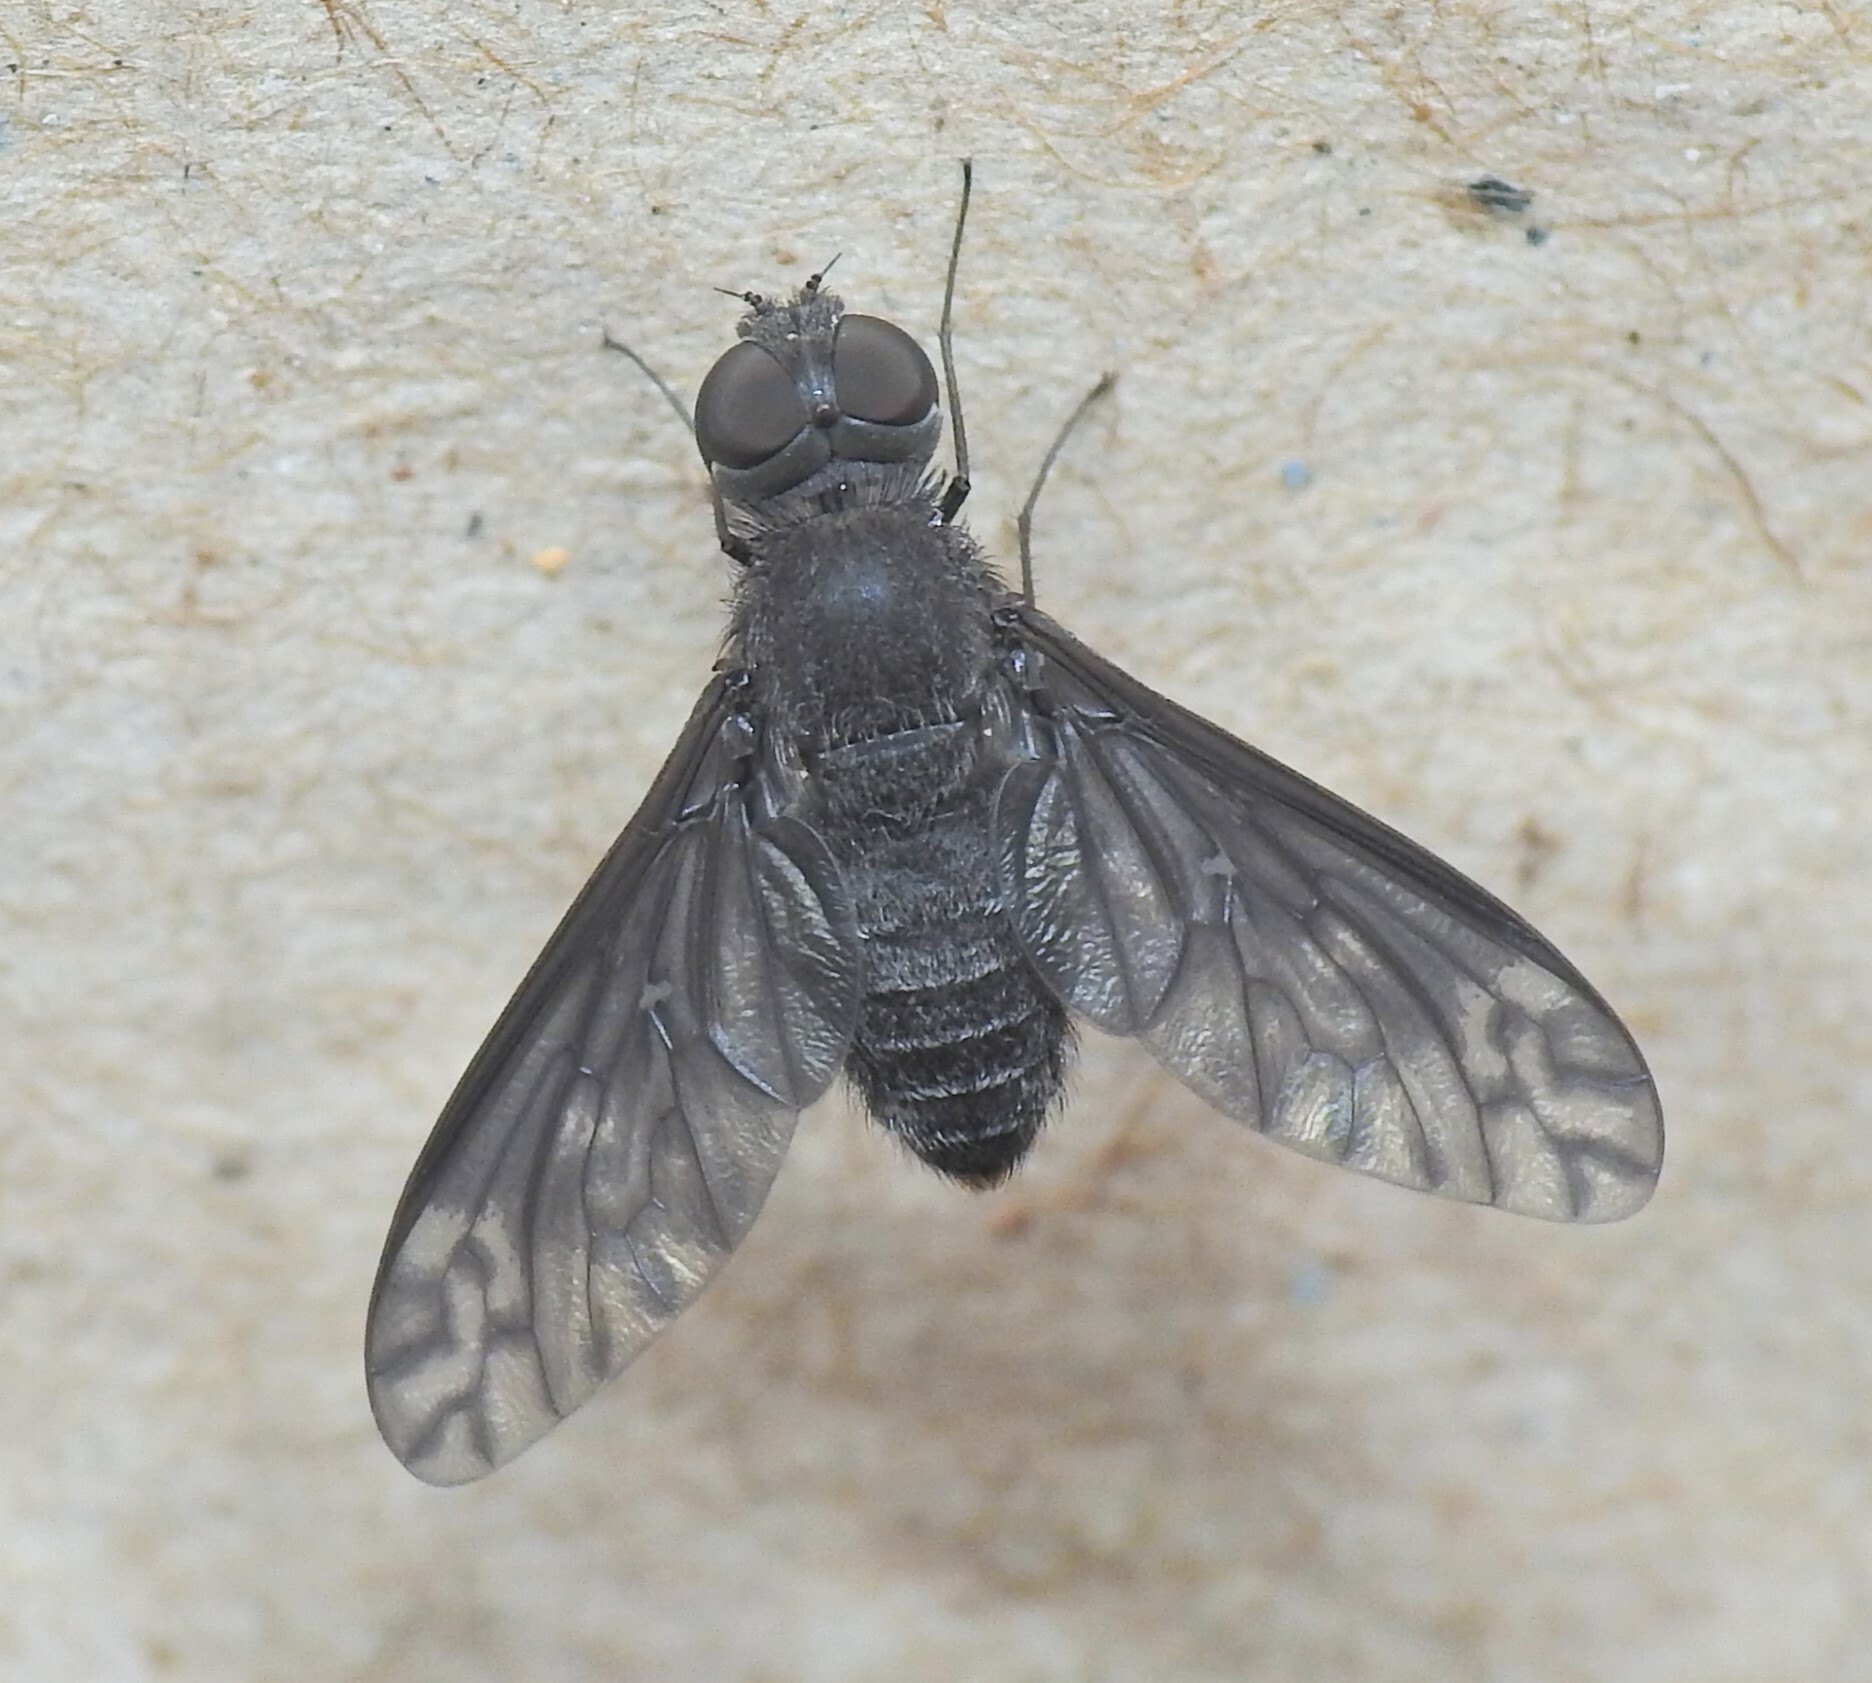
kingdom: Animalia
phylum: Arthropoda
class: Insecta
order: Diptera
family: Bombyliidae
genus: Anthrax
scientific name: Anthrax confluensis
